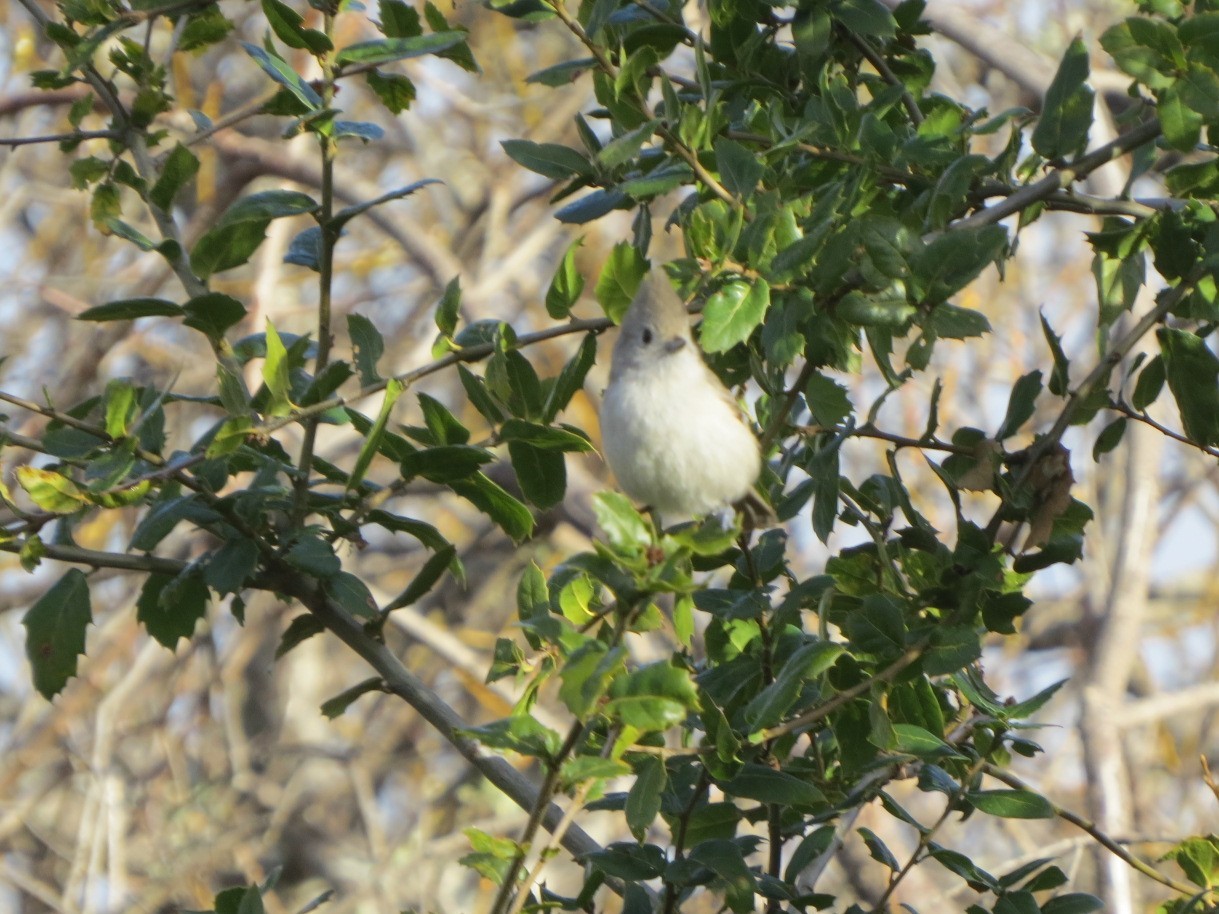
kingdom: Animalia
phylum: Chordata
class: Aves
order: Passeriformes
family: Paridae
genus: Baeolophus
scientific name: Baeolophus inornatus
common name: Oak titmouse
